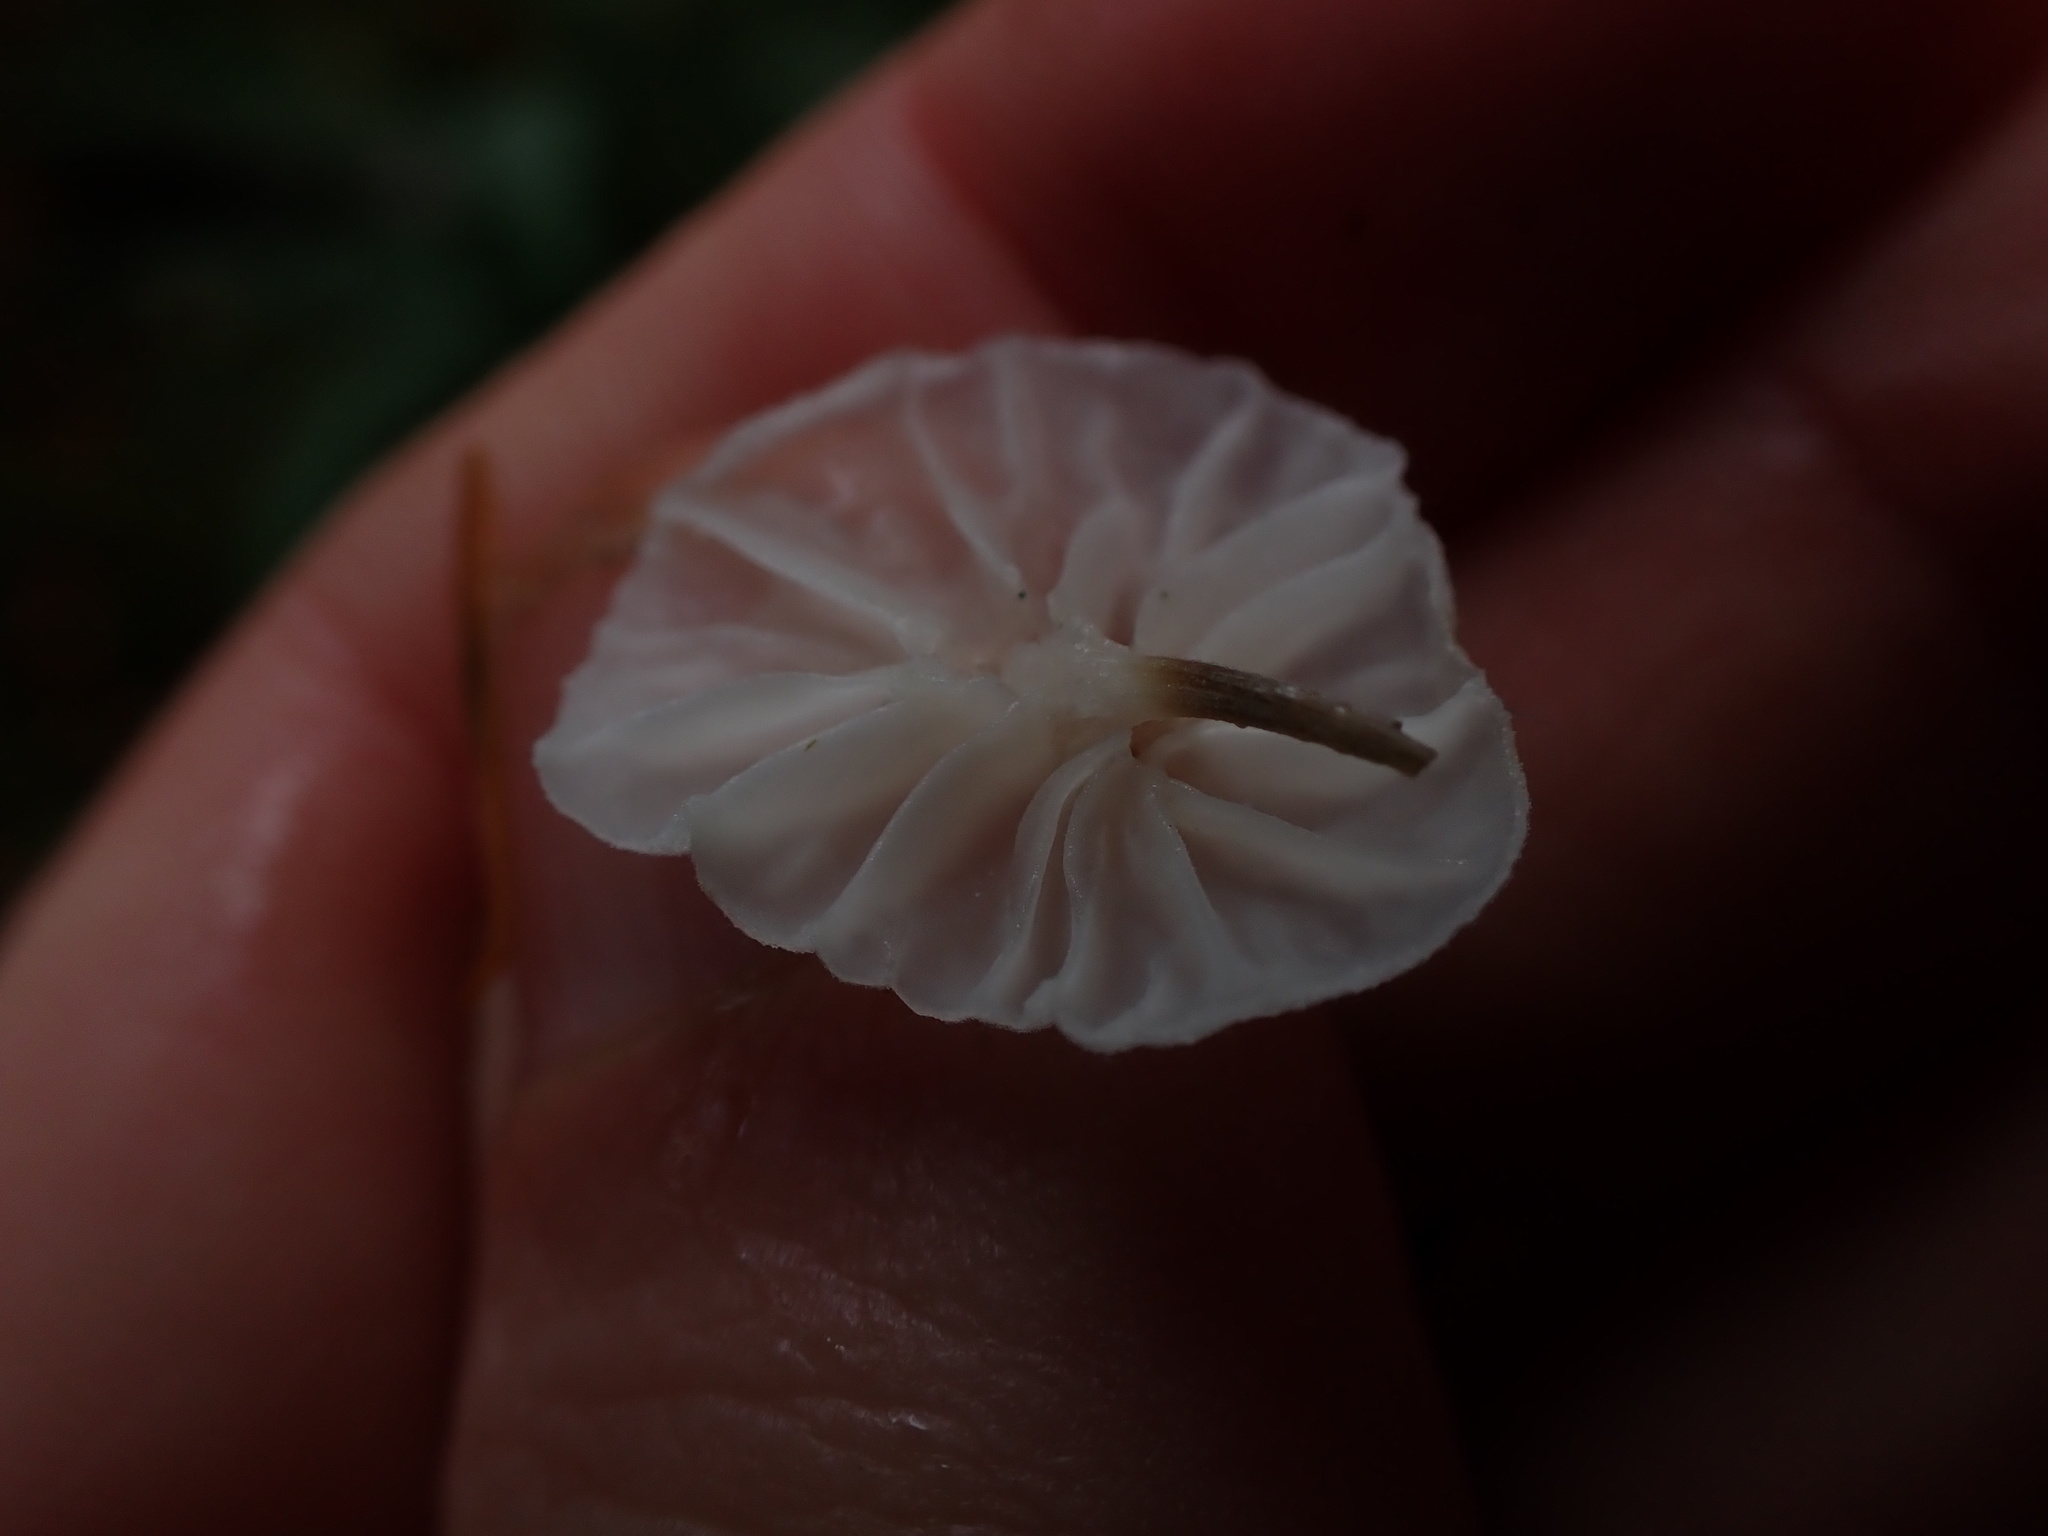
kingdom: Fungi
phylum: Basidiomycota
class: Agaricomycetes
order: Agaricales
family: Omphalotaceae
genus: Marasmiellus
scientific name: Marasmiellus candidus
